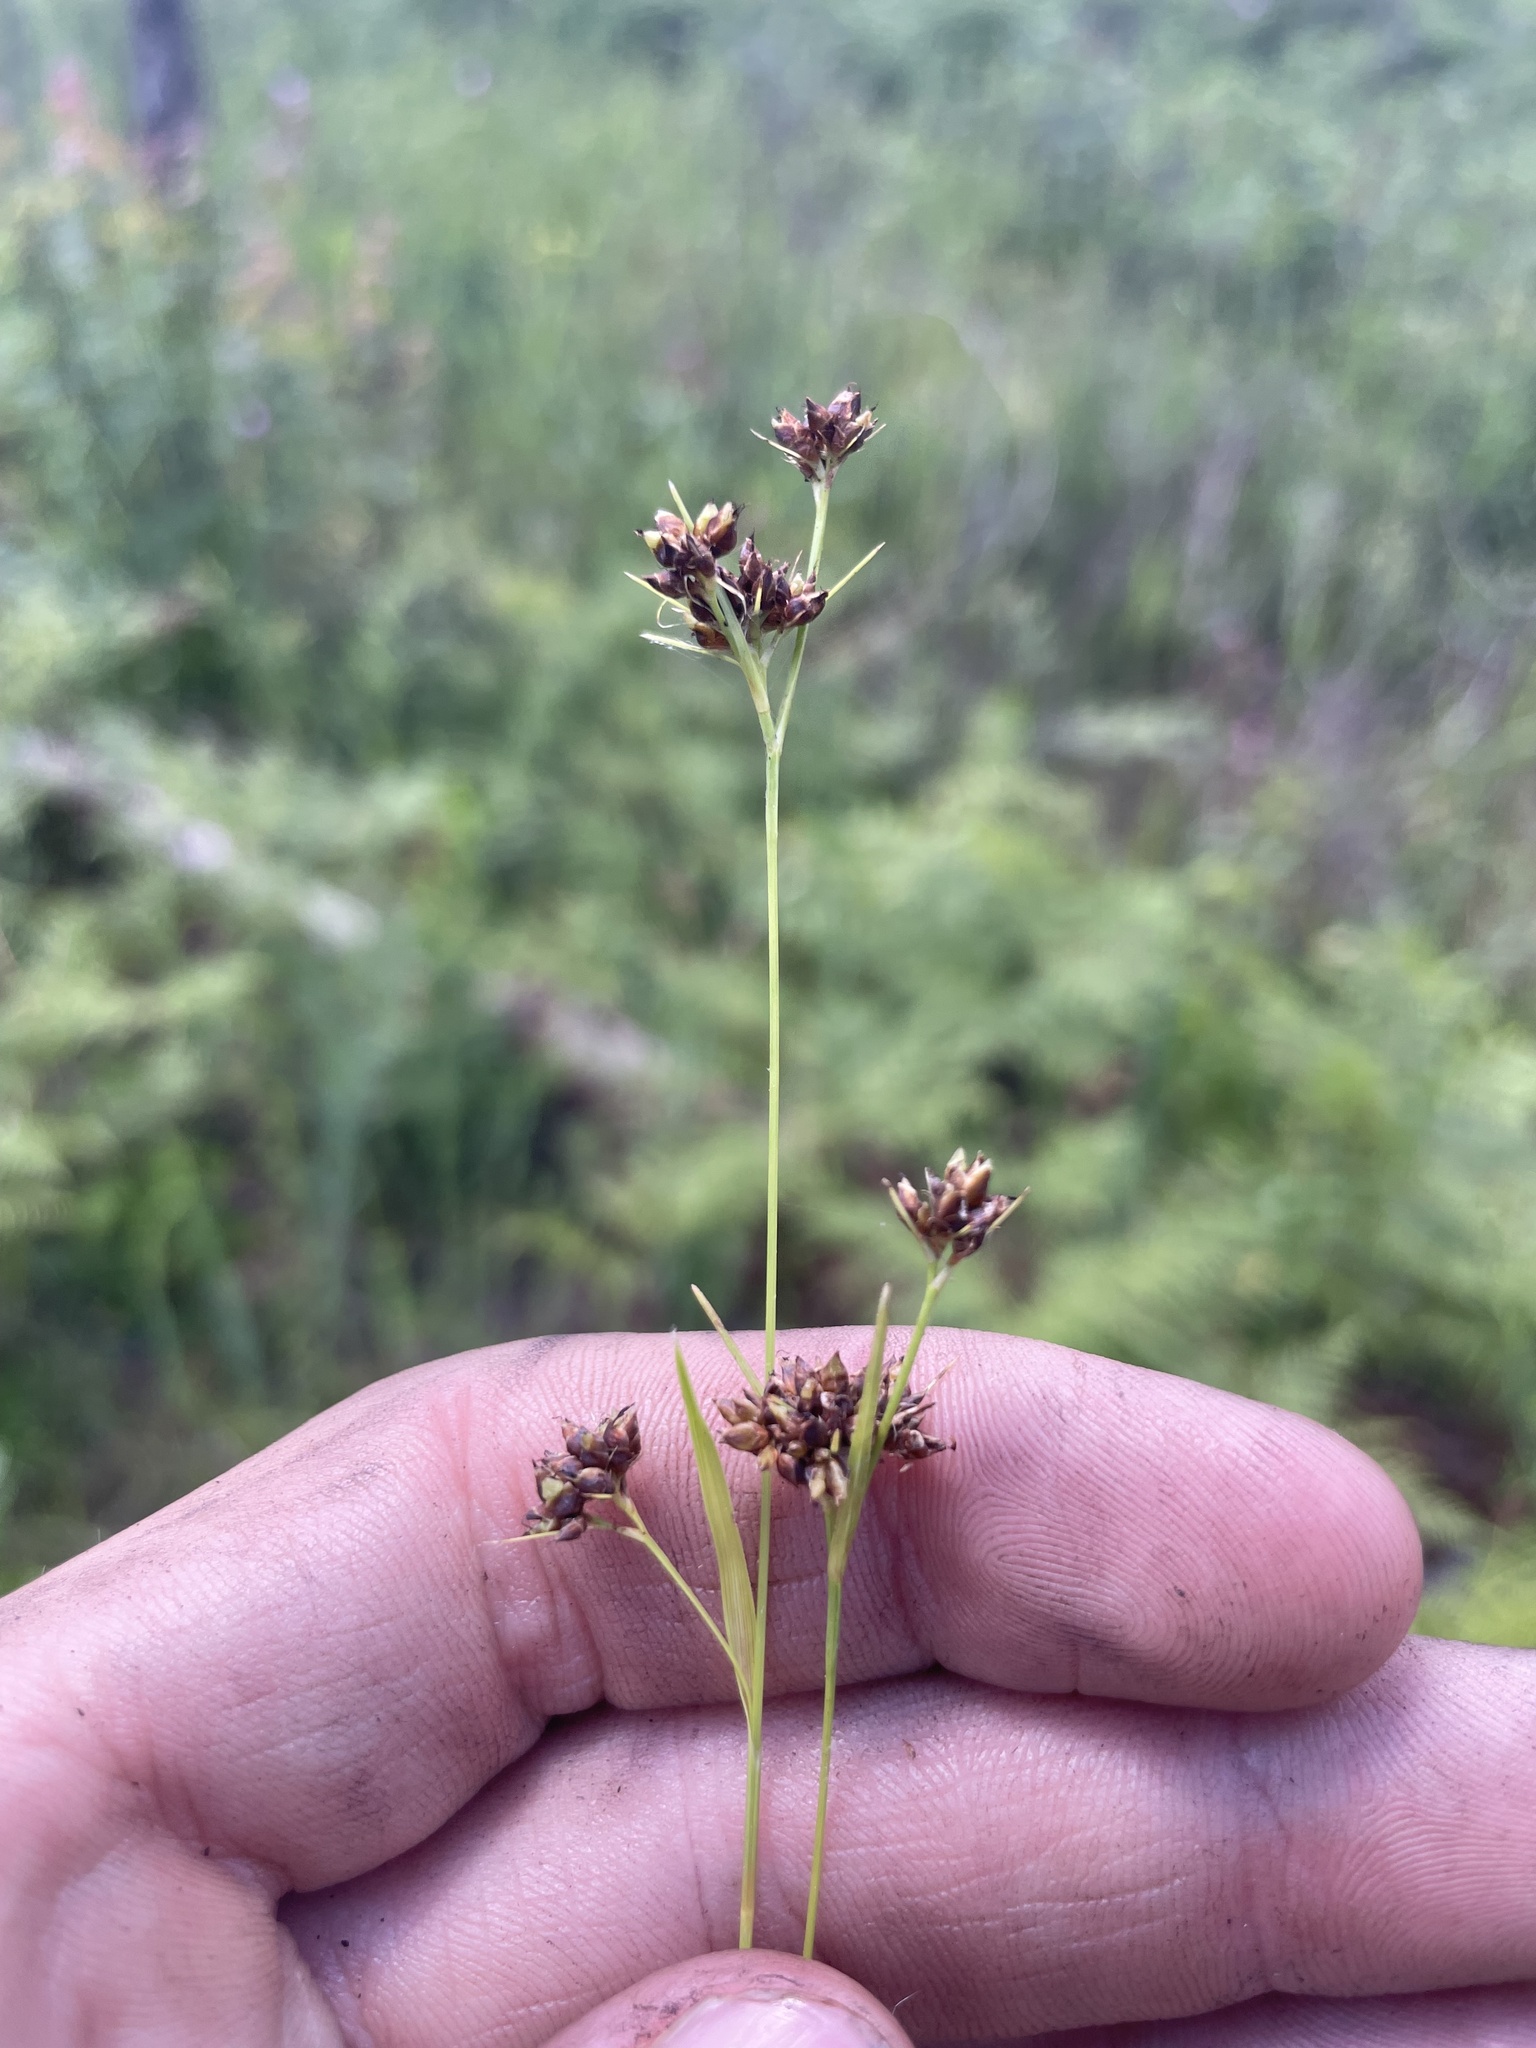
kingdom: Plantae
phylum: Tracheophyta
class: Liliopsida
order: Poales
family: Cyperaceae
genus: Rhynchospora
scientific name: Rhynchospora compressa
